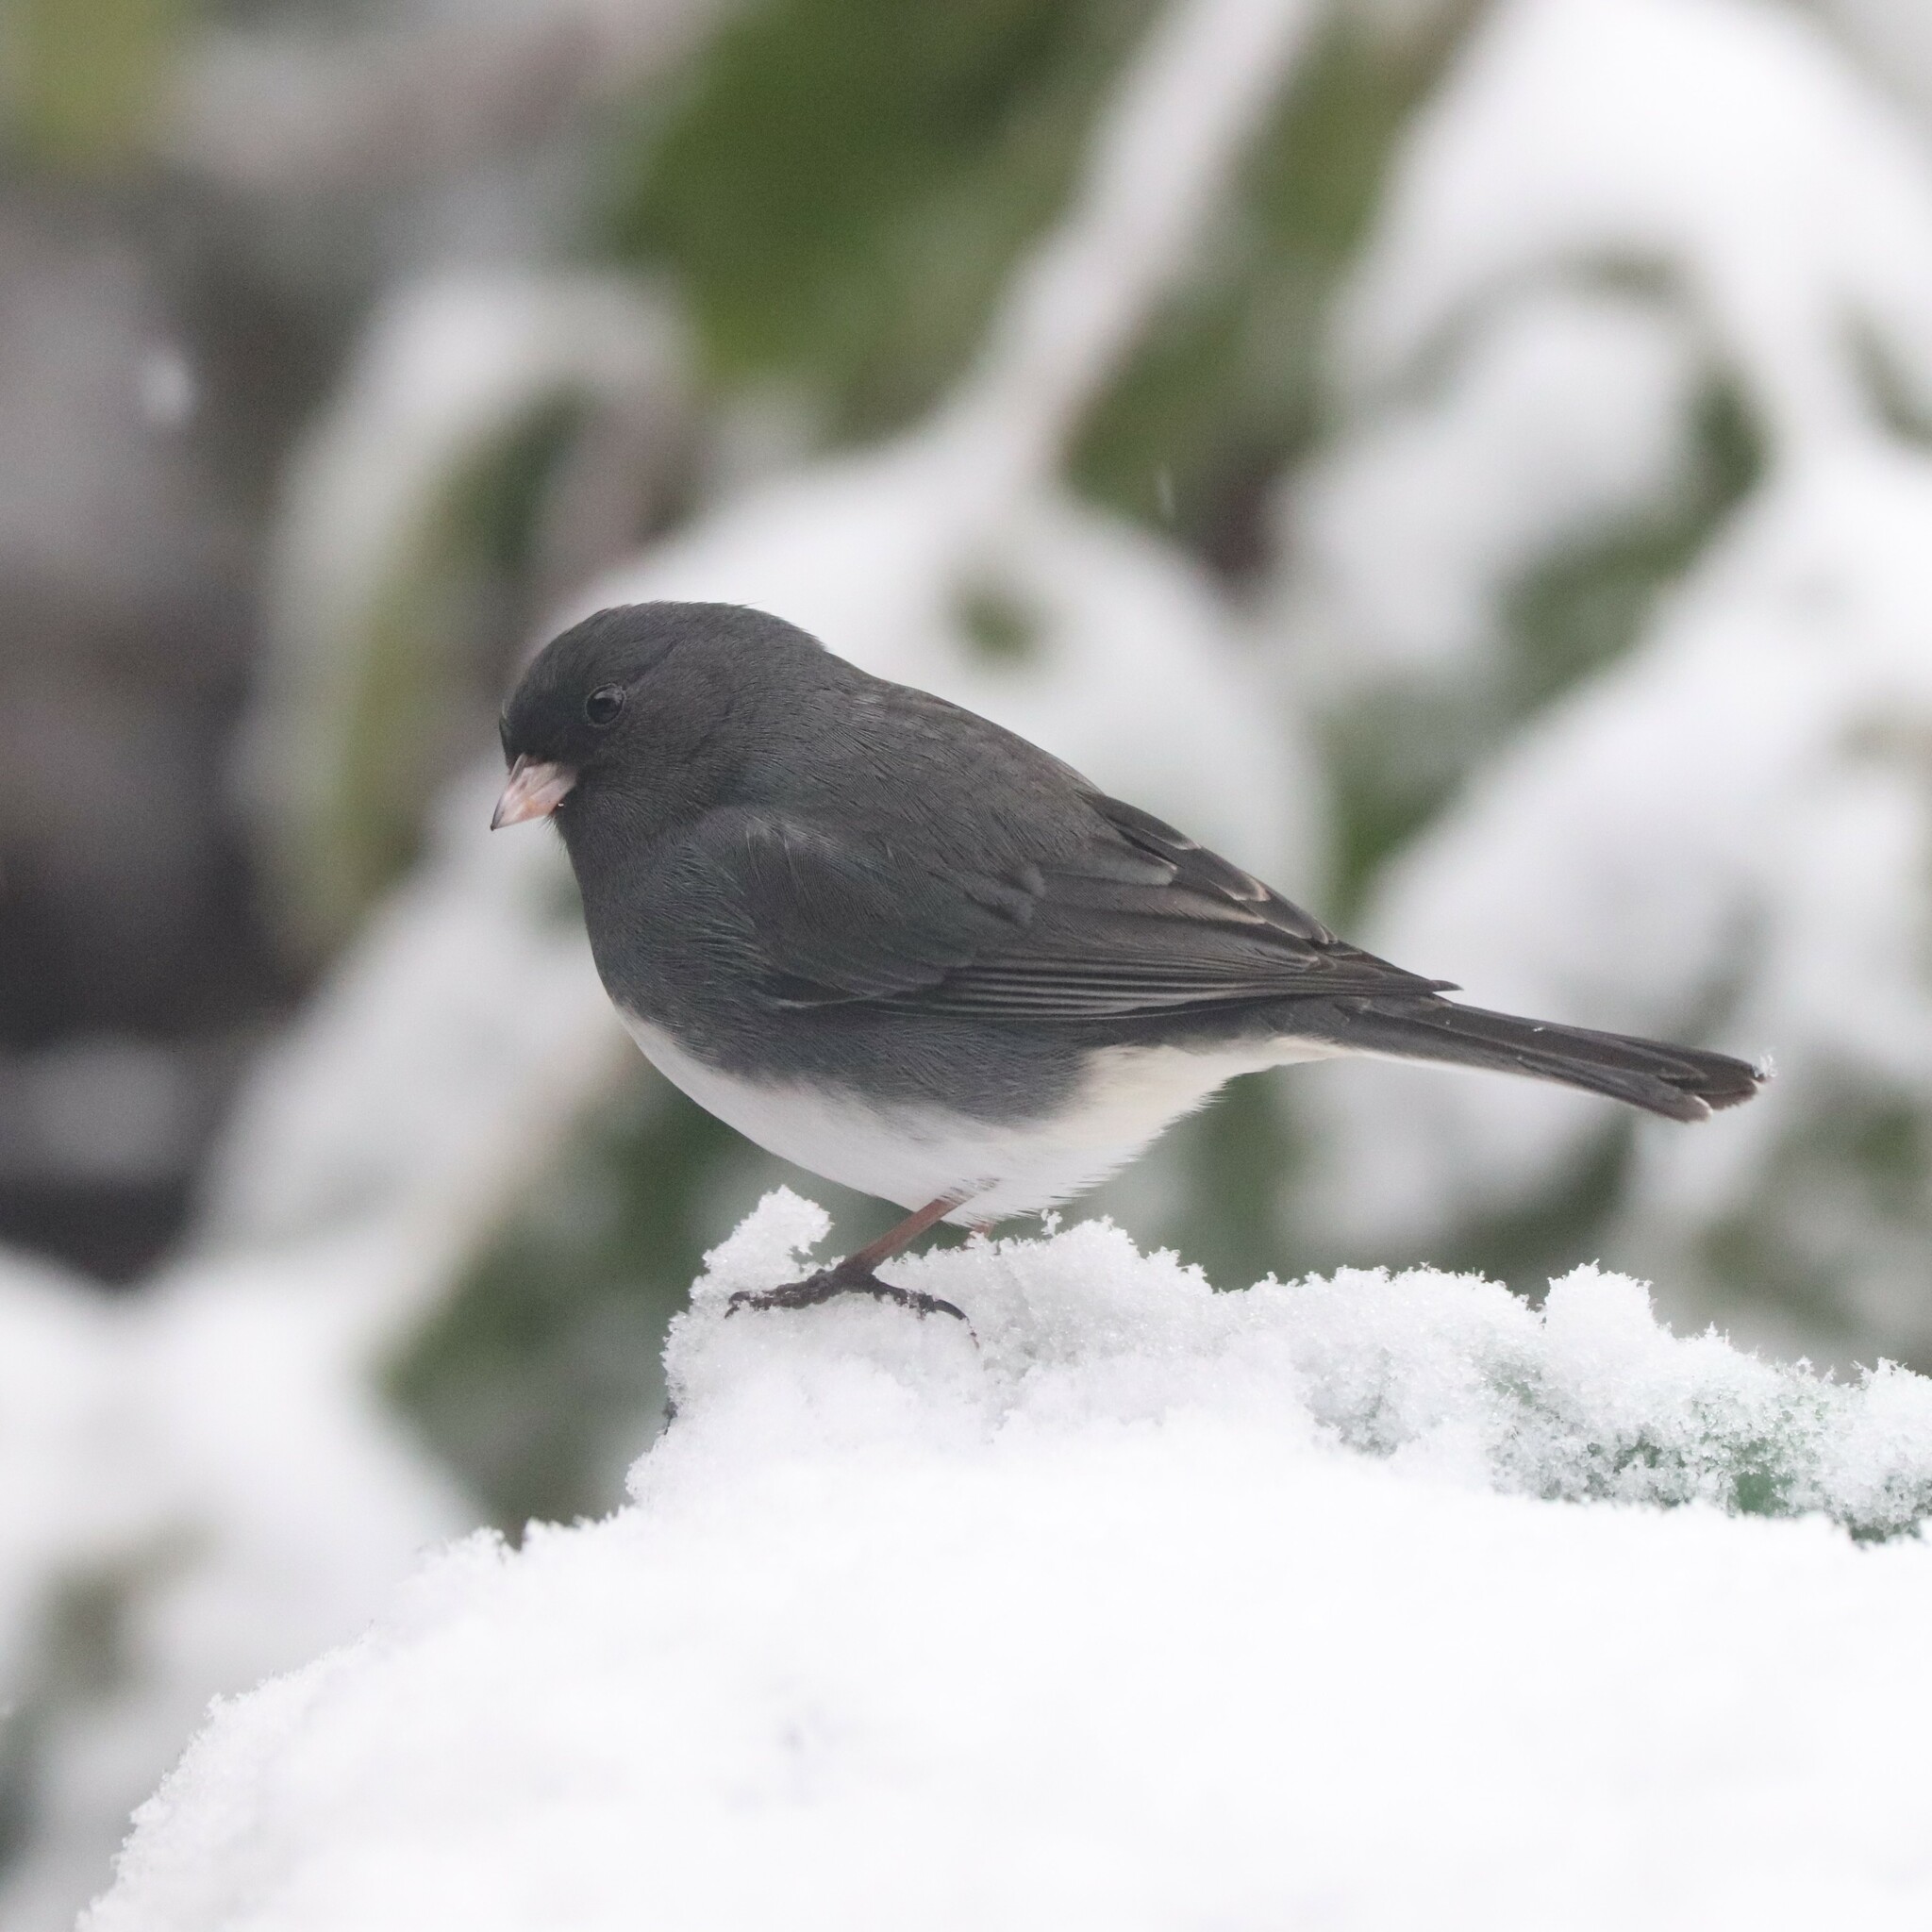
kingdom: Animalia
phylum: Chordata
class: Aves
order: Passeriformes
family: Passerellidae
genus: Junco
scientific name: Junco hyemalis
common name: Dark-eyed junco
